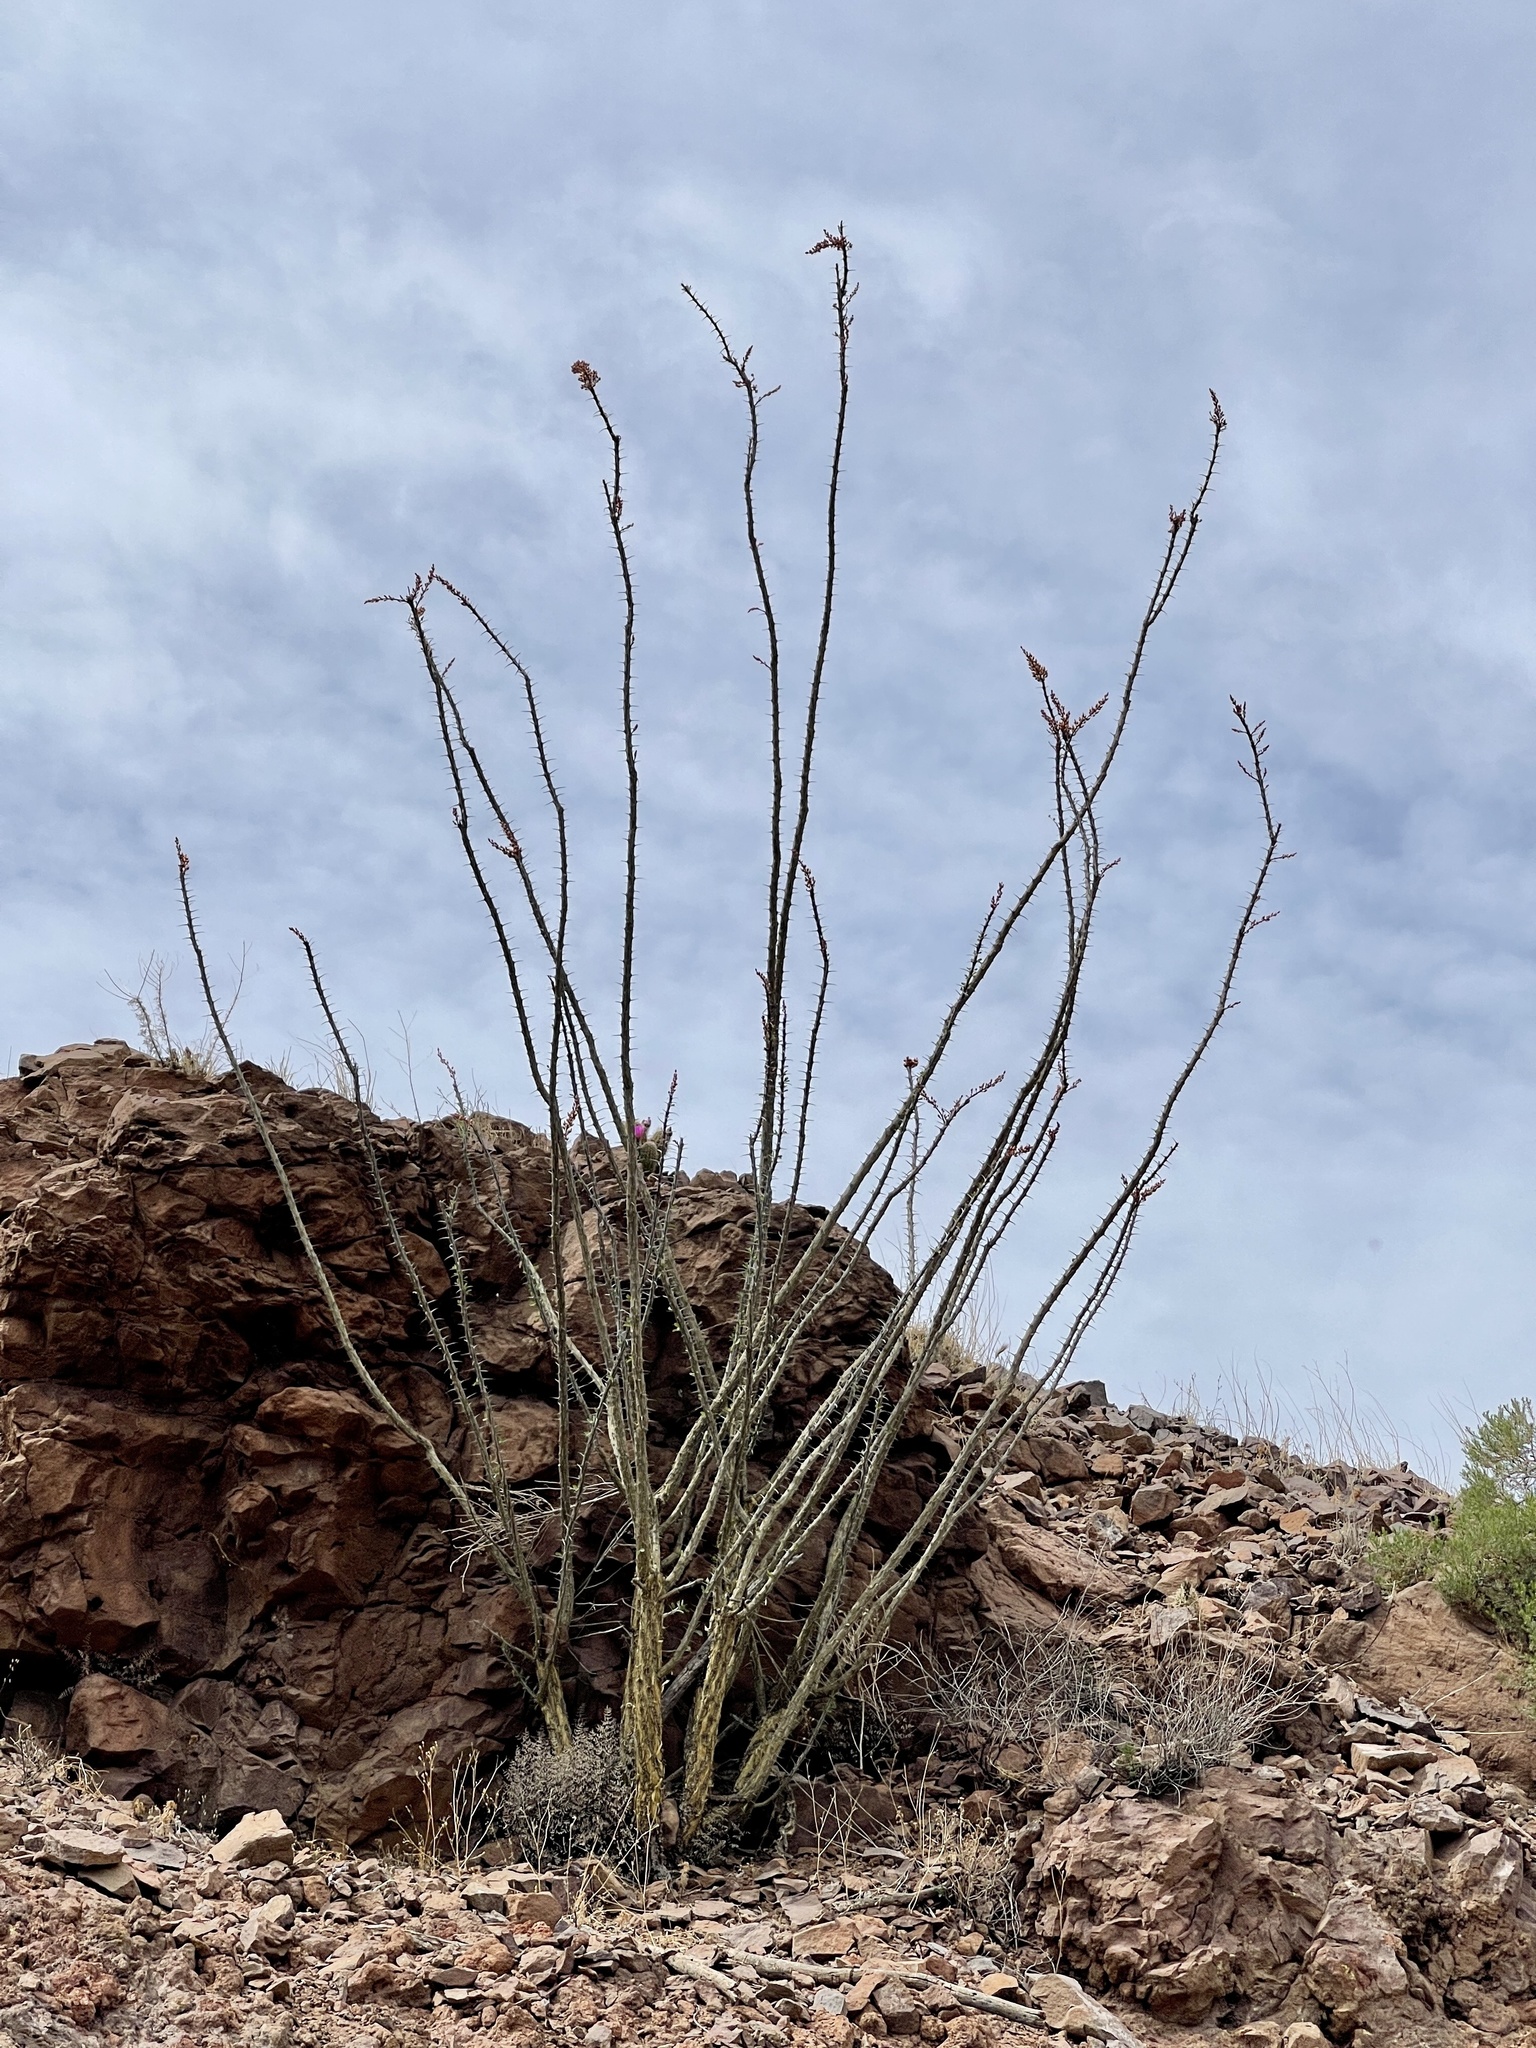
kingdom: Plantae
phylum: Tracheophyta
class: Magnoliopsida
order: Ericales
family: Fouquieriaceae
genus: Fouquieria
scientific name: Fouquieria splendens
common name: Vine-cactus
